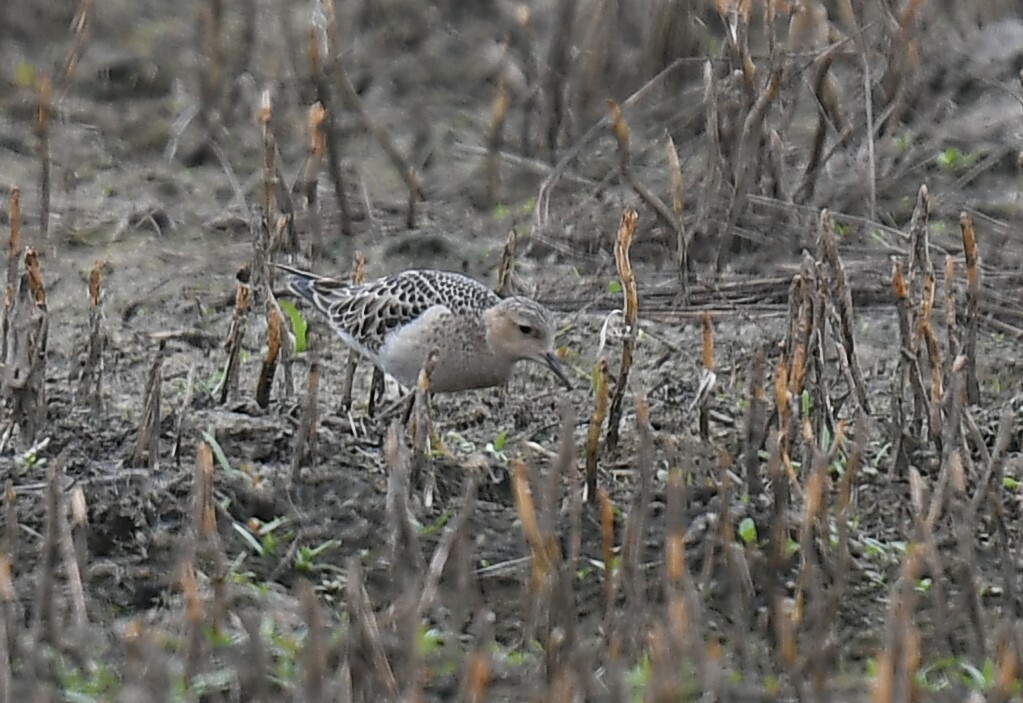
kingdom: Animalia
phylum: Chordata
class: Aves
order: Charadriiformes
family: Scolopacidae
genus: Calidris
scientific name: Calidris subruficollis
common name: Buff-breasted sandpiper
